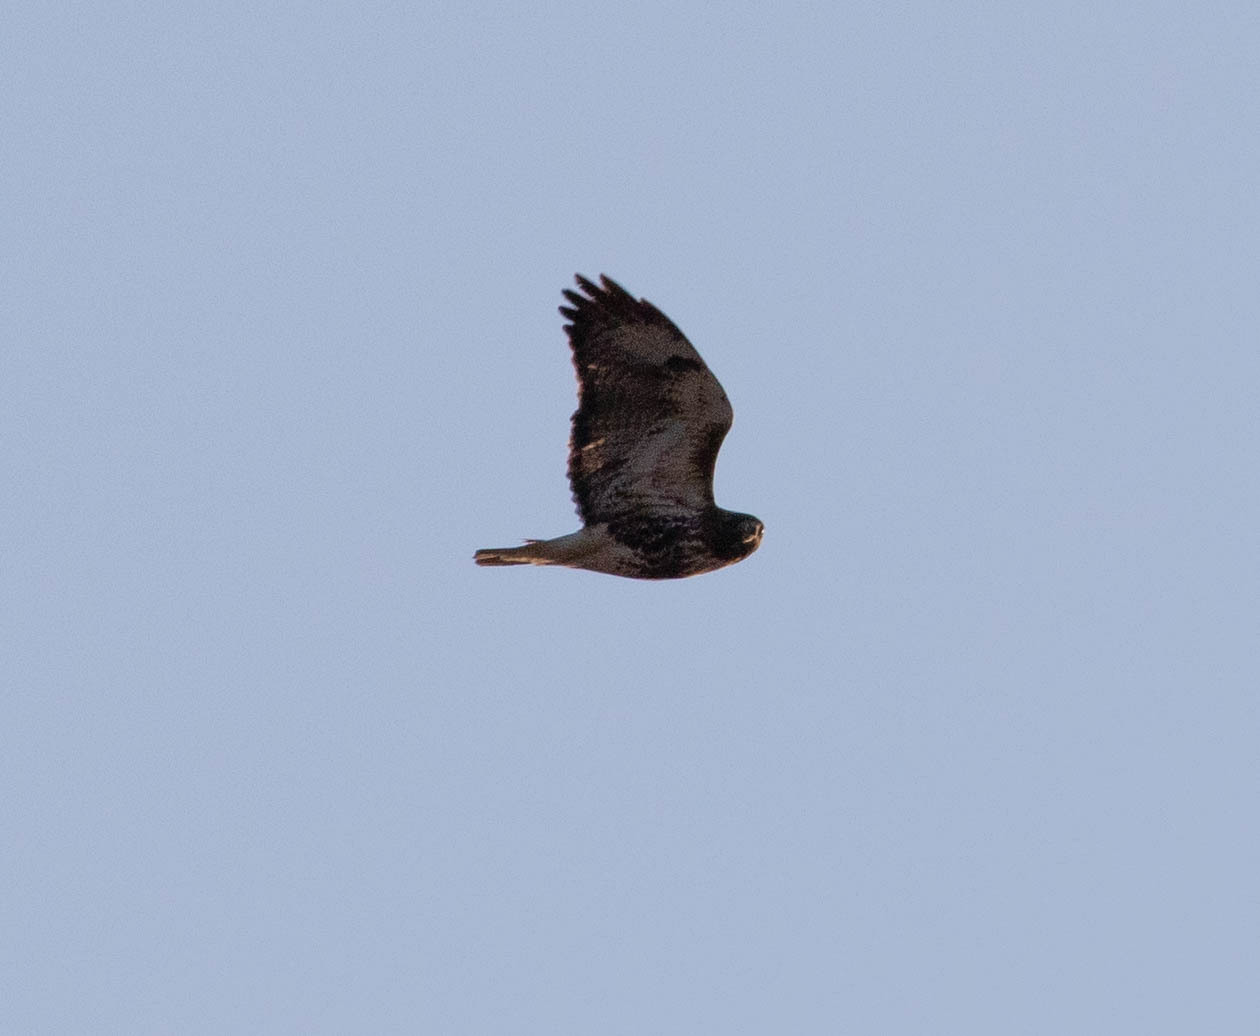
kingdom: Animalia
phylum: Chordata
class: Aves
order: Accipitriformes
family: Accipitridae
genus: Buteo
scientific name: Buteo jamaicensis
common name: Red-tailed hawk
